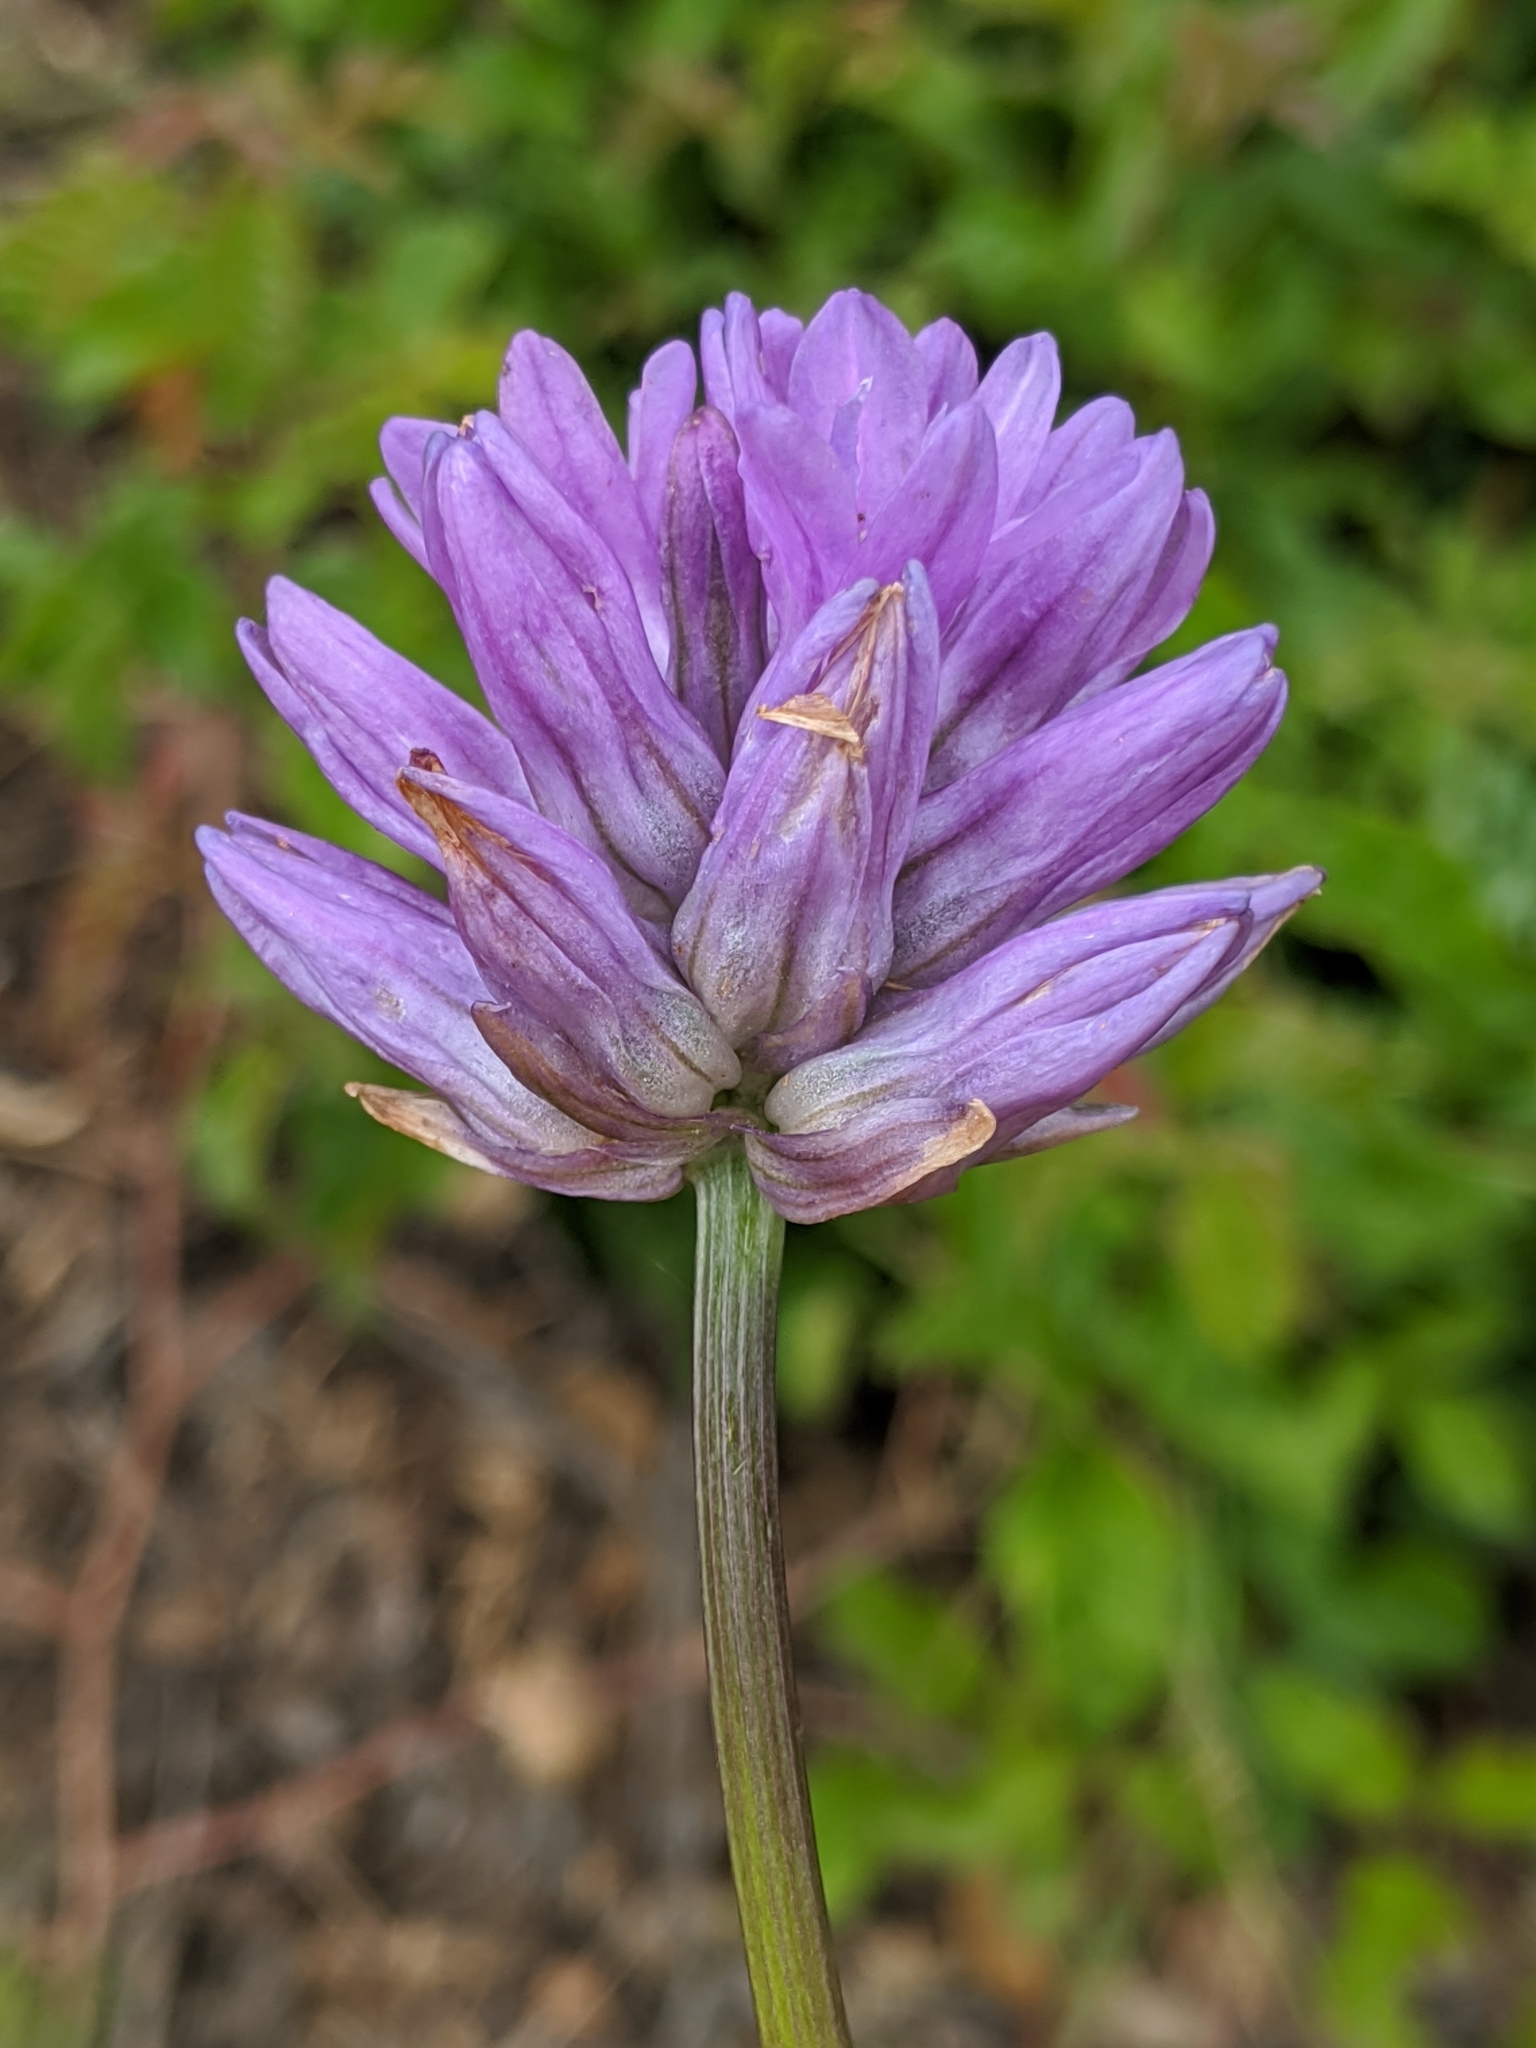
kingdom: Plantae
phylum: Tracheophyta
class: Liliopsida
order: Asparagales
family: Asparagaceae
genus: Dichelostemma
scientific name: Dichelostemma congestum
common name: Fork-tooth ookow
